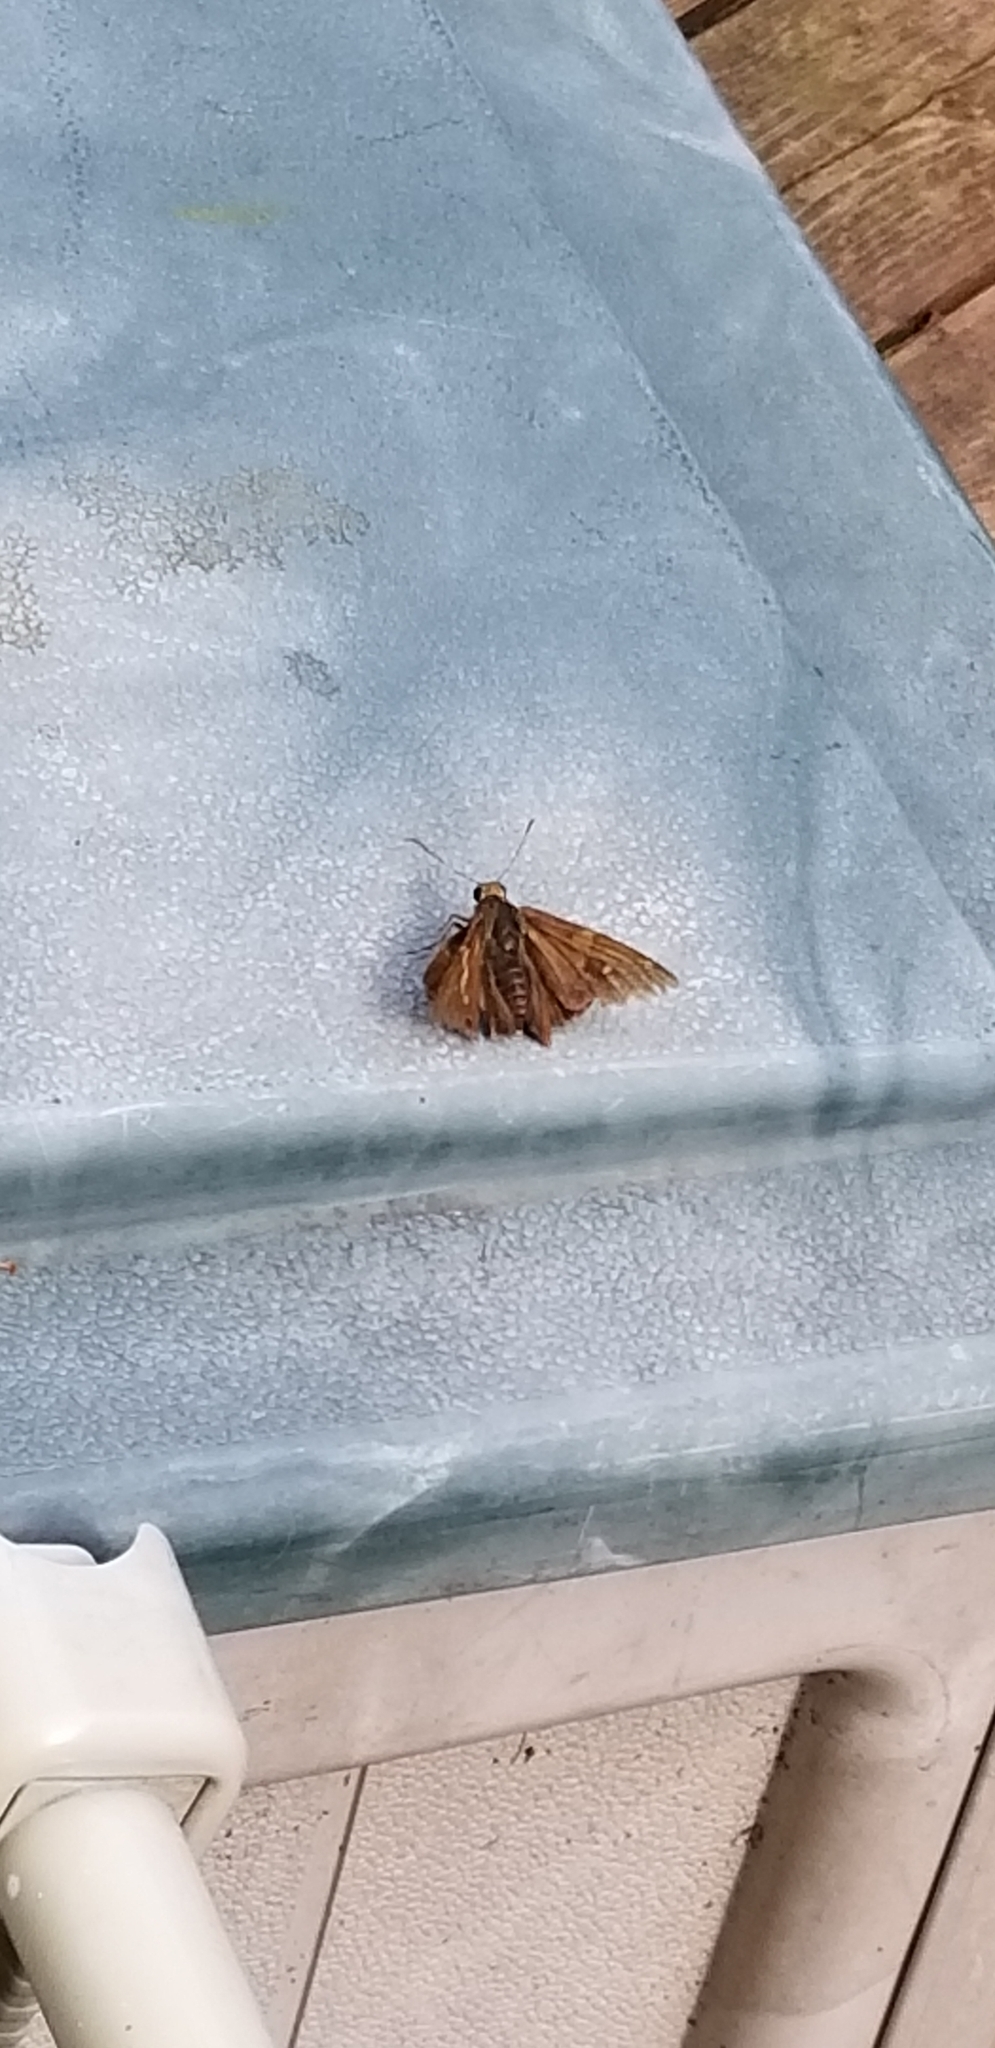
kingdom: Animalia
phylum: Arthropoda
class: Insecta
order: Lepidoptera
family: Hesperiidae
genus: Epargyreus
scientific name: Epargyreus clarus
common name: Silver-spotted skipper
